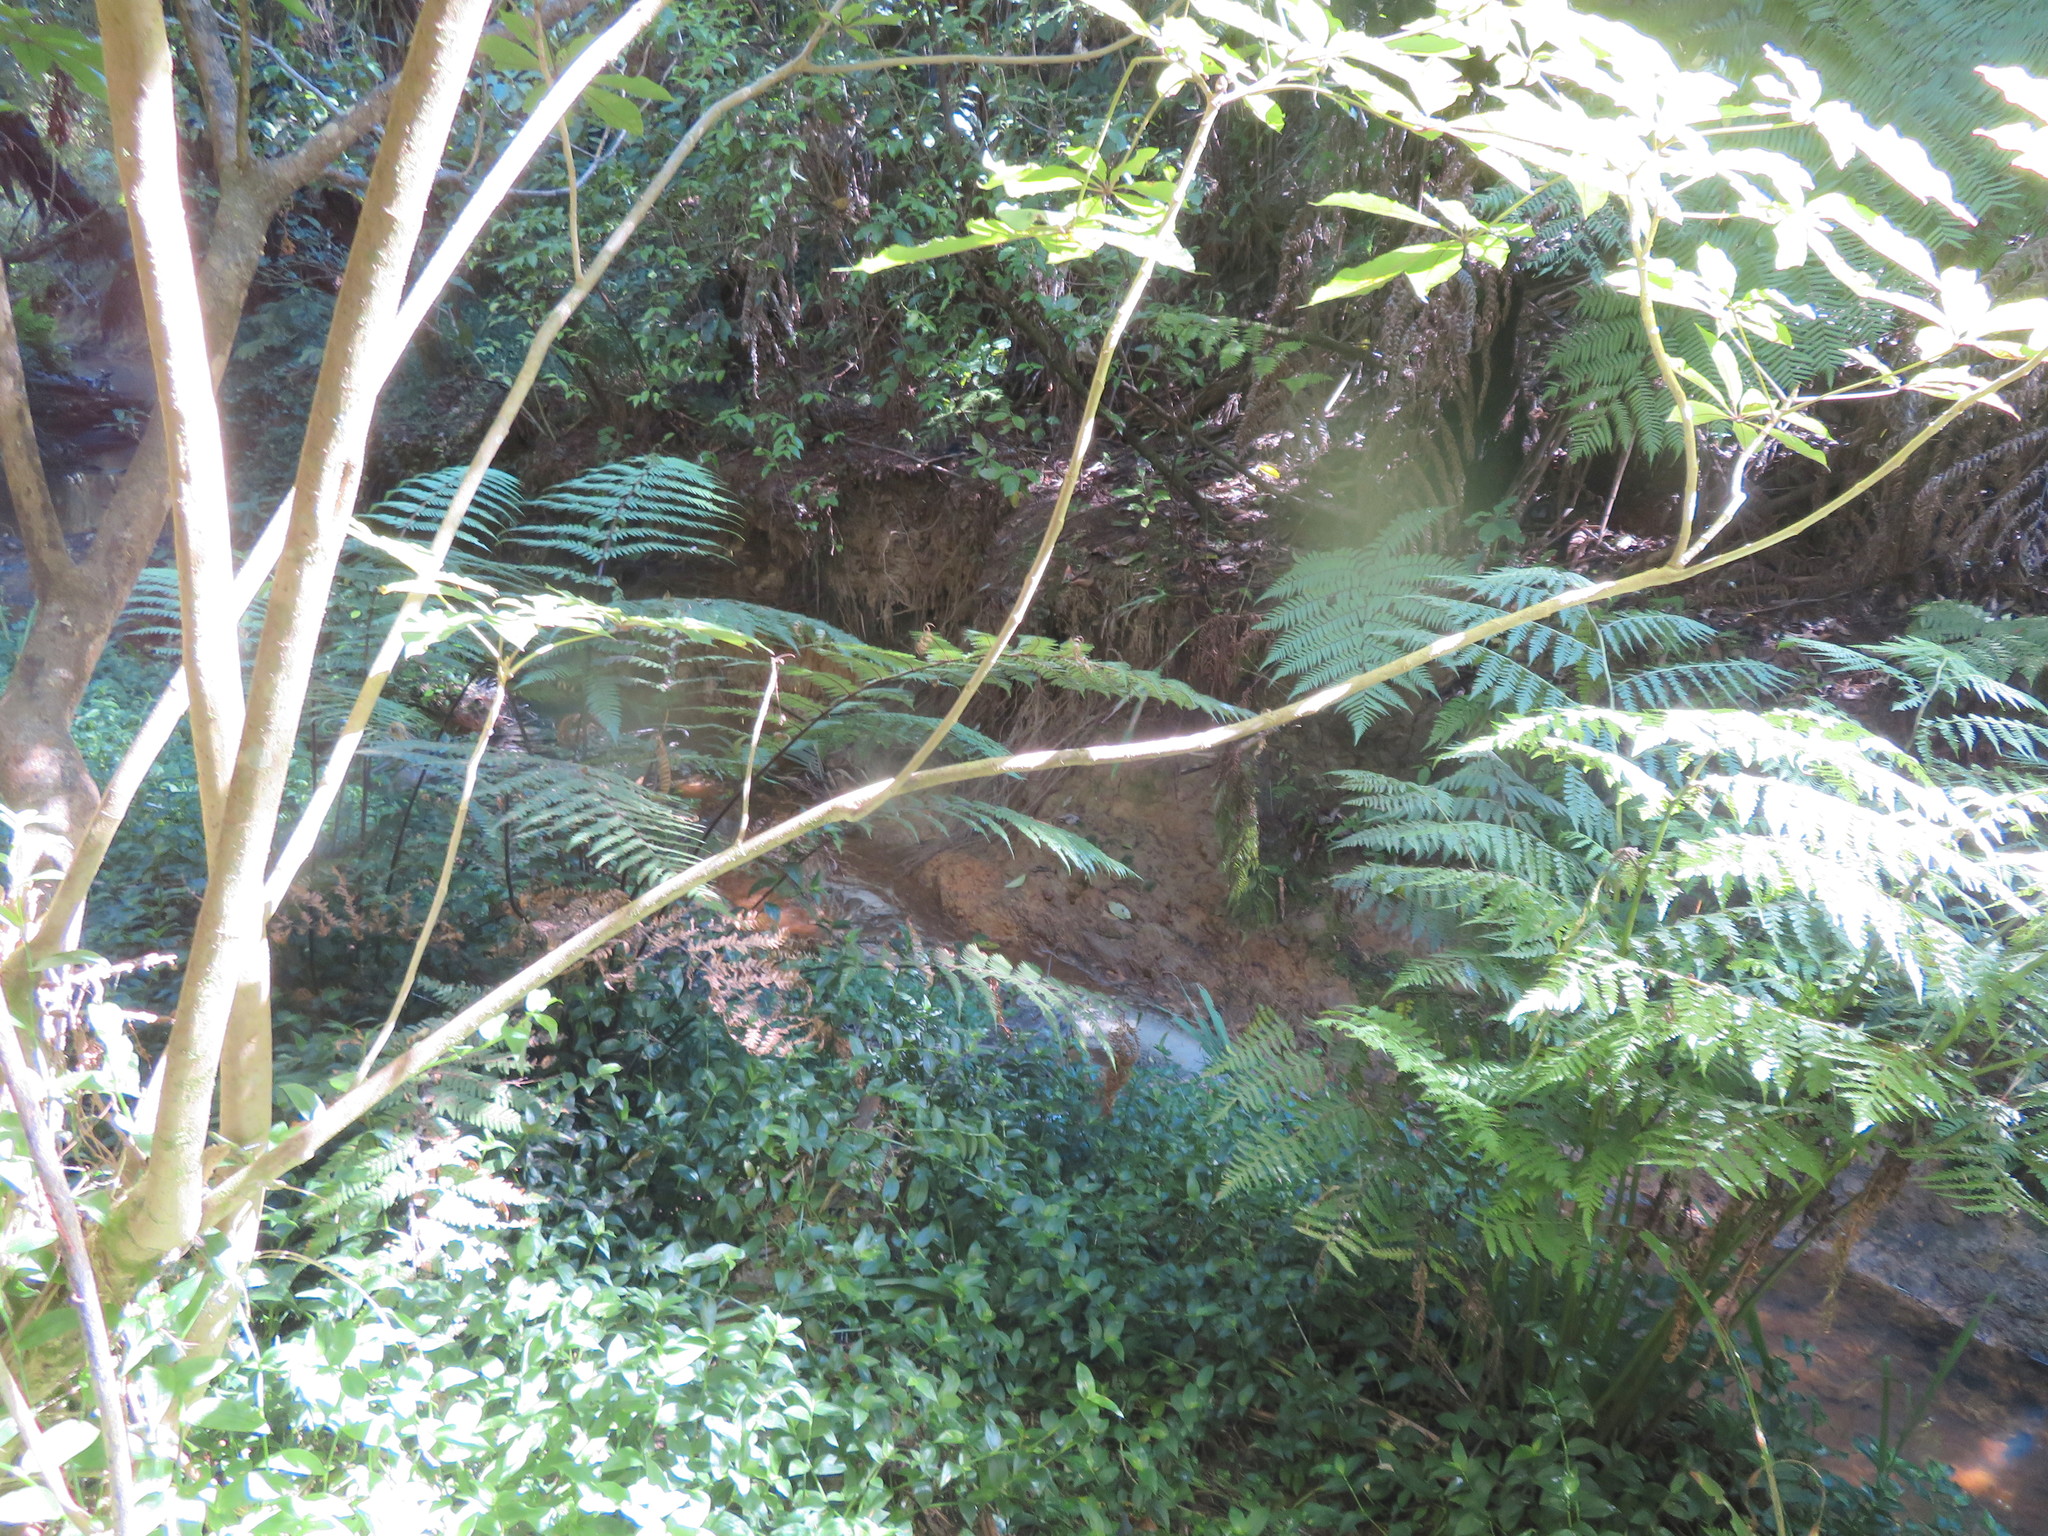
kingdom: Plantae
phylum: Tracheophyta
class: Magnoliopsida
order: Apiales
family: Araliaceae
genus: Schefflera
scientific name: Schefflera digitata
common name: Pate
